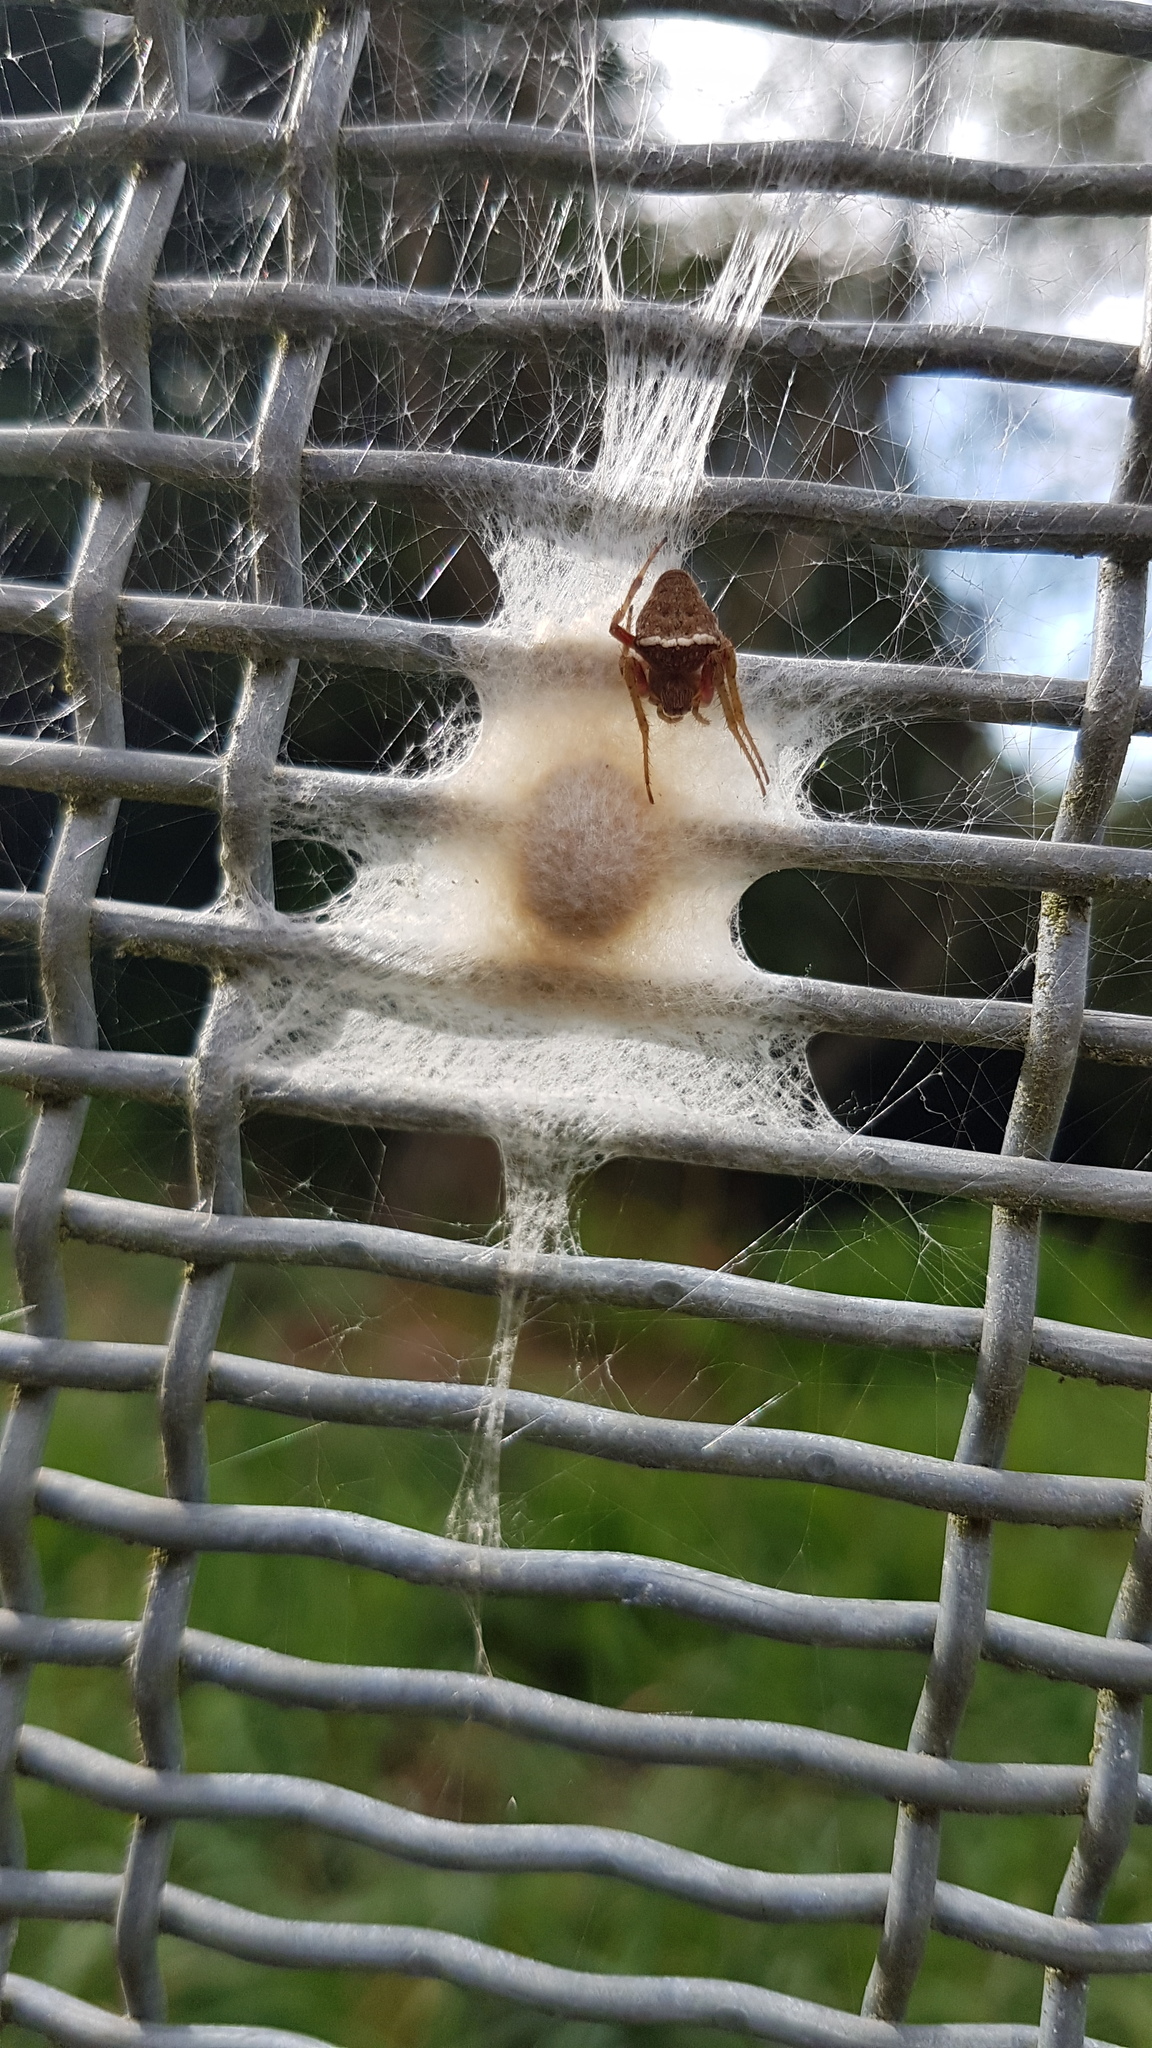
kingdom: Animalia
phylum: Arthropoda
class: Arachnida
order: Araneae
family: Araneidae
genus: Zealaranea
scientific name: Zealaranea crassa
